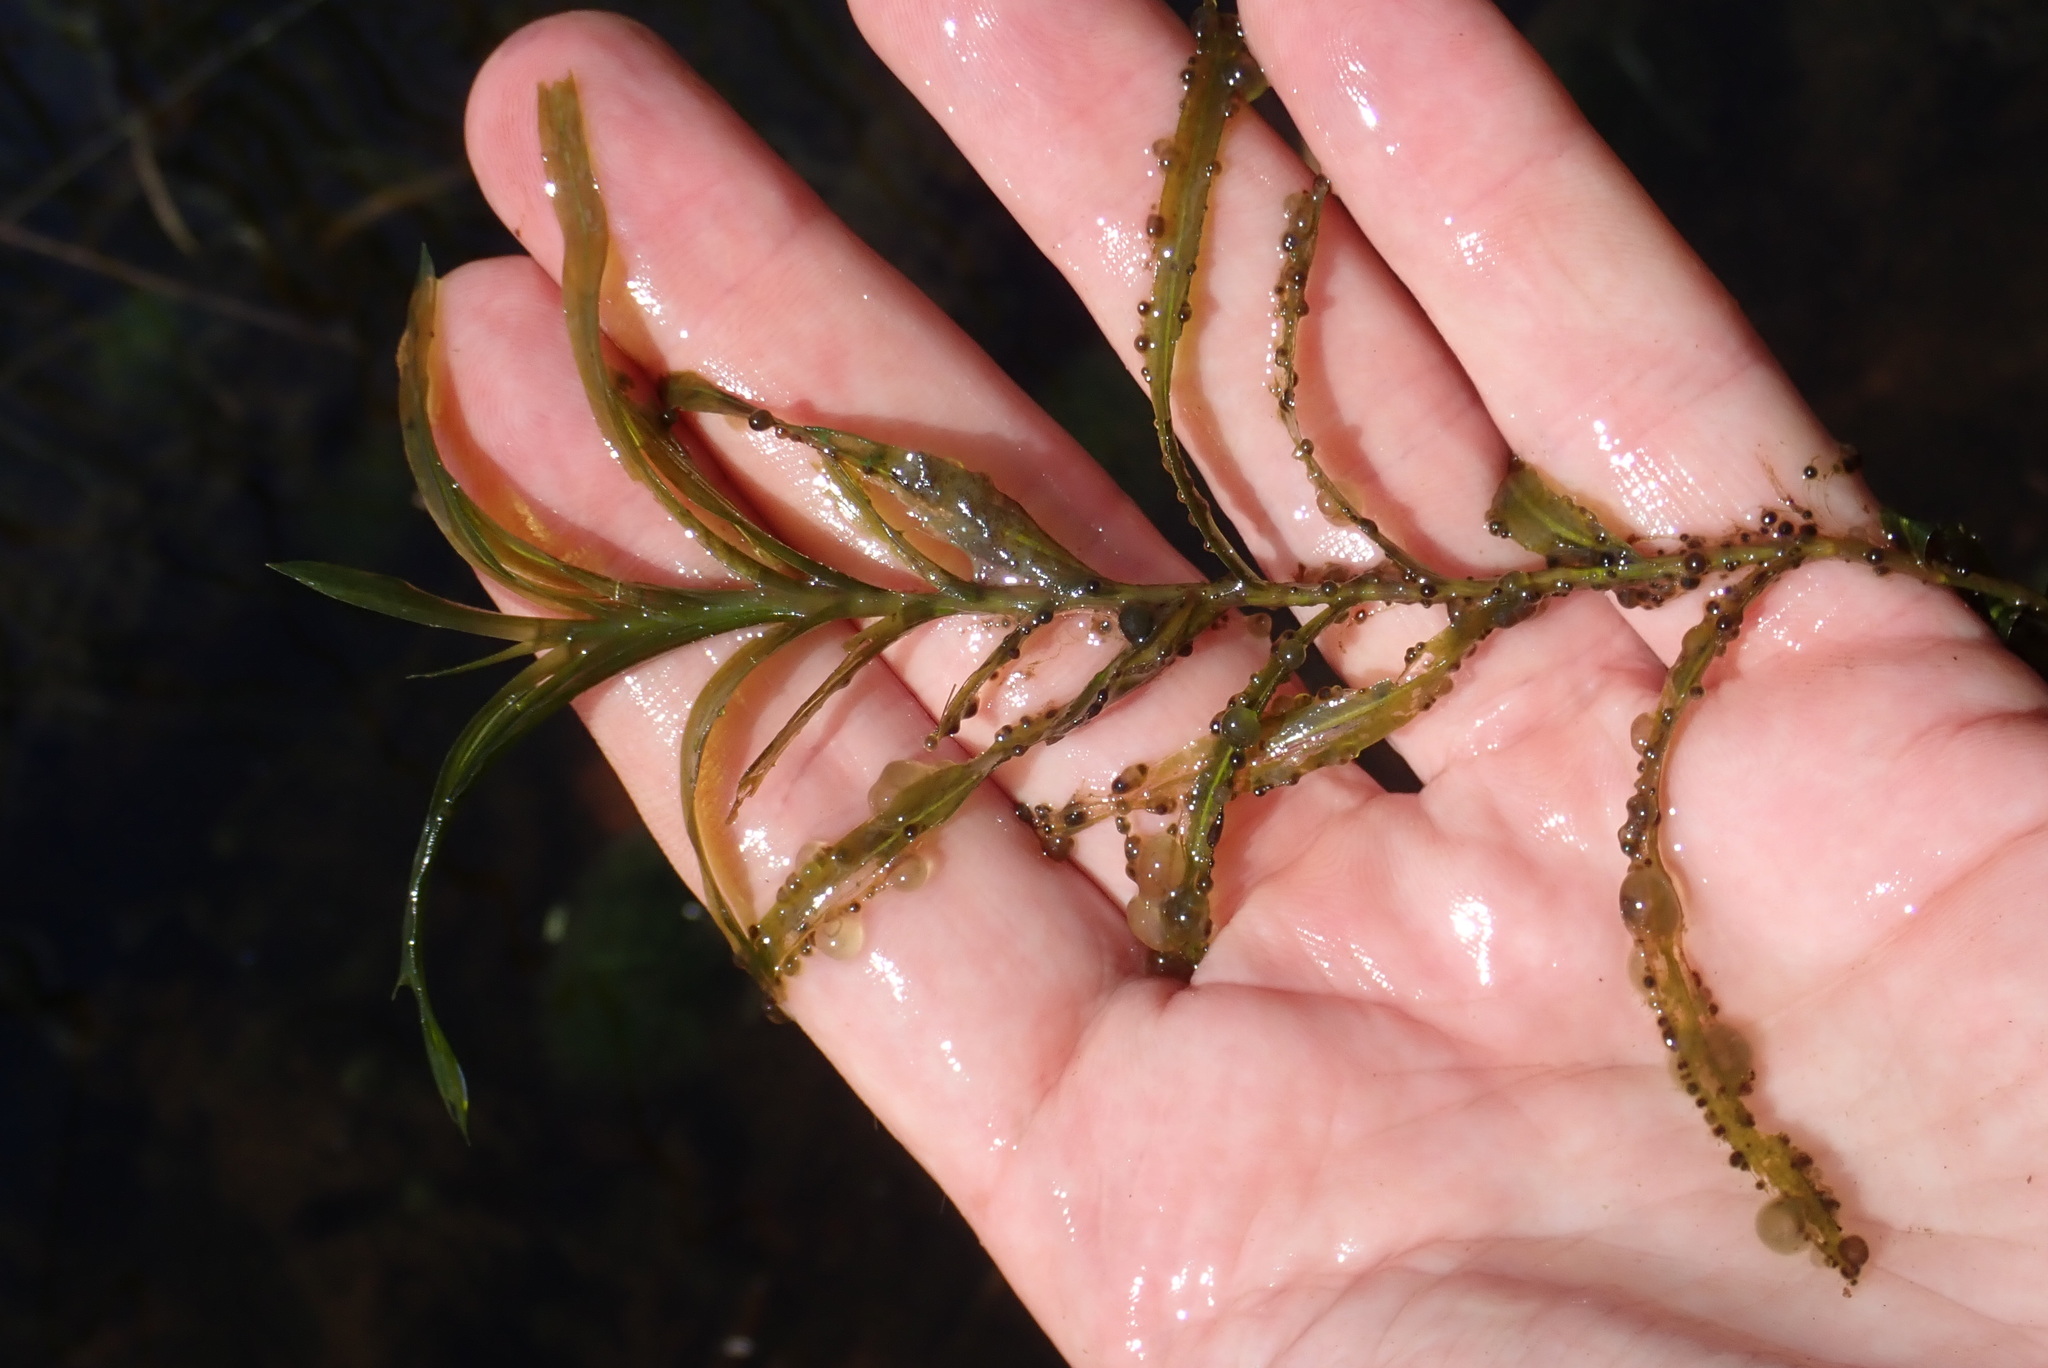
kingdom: Plantae
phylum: Tracheophyta
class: Liliopsida
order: Alismatales
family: Potamogetonaceae
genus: Potamogeton
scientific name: Potamogeton robbinsii
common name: Fern pondweed
